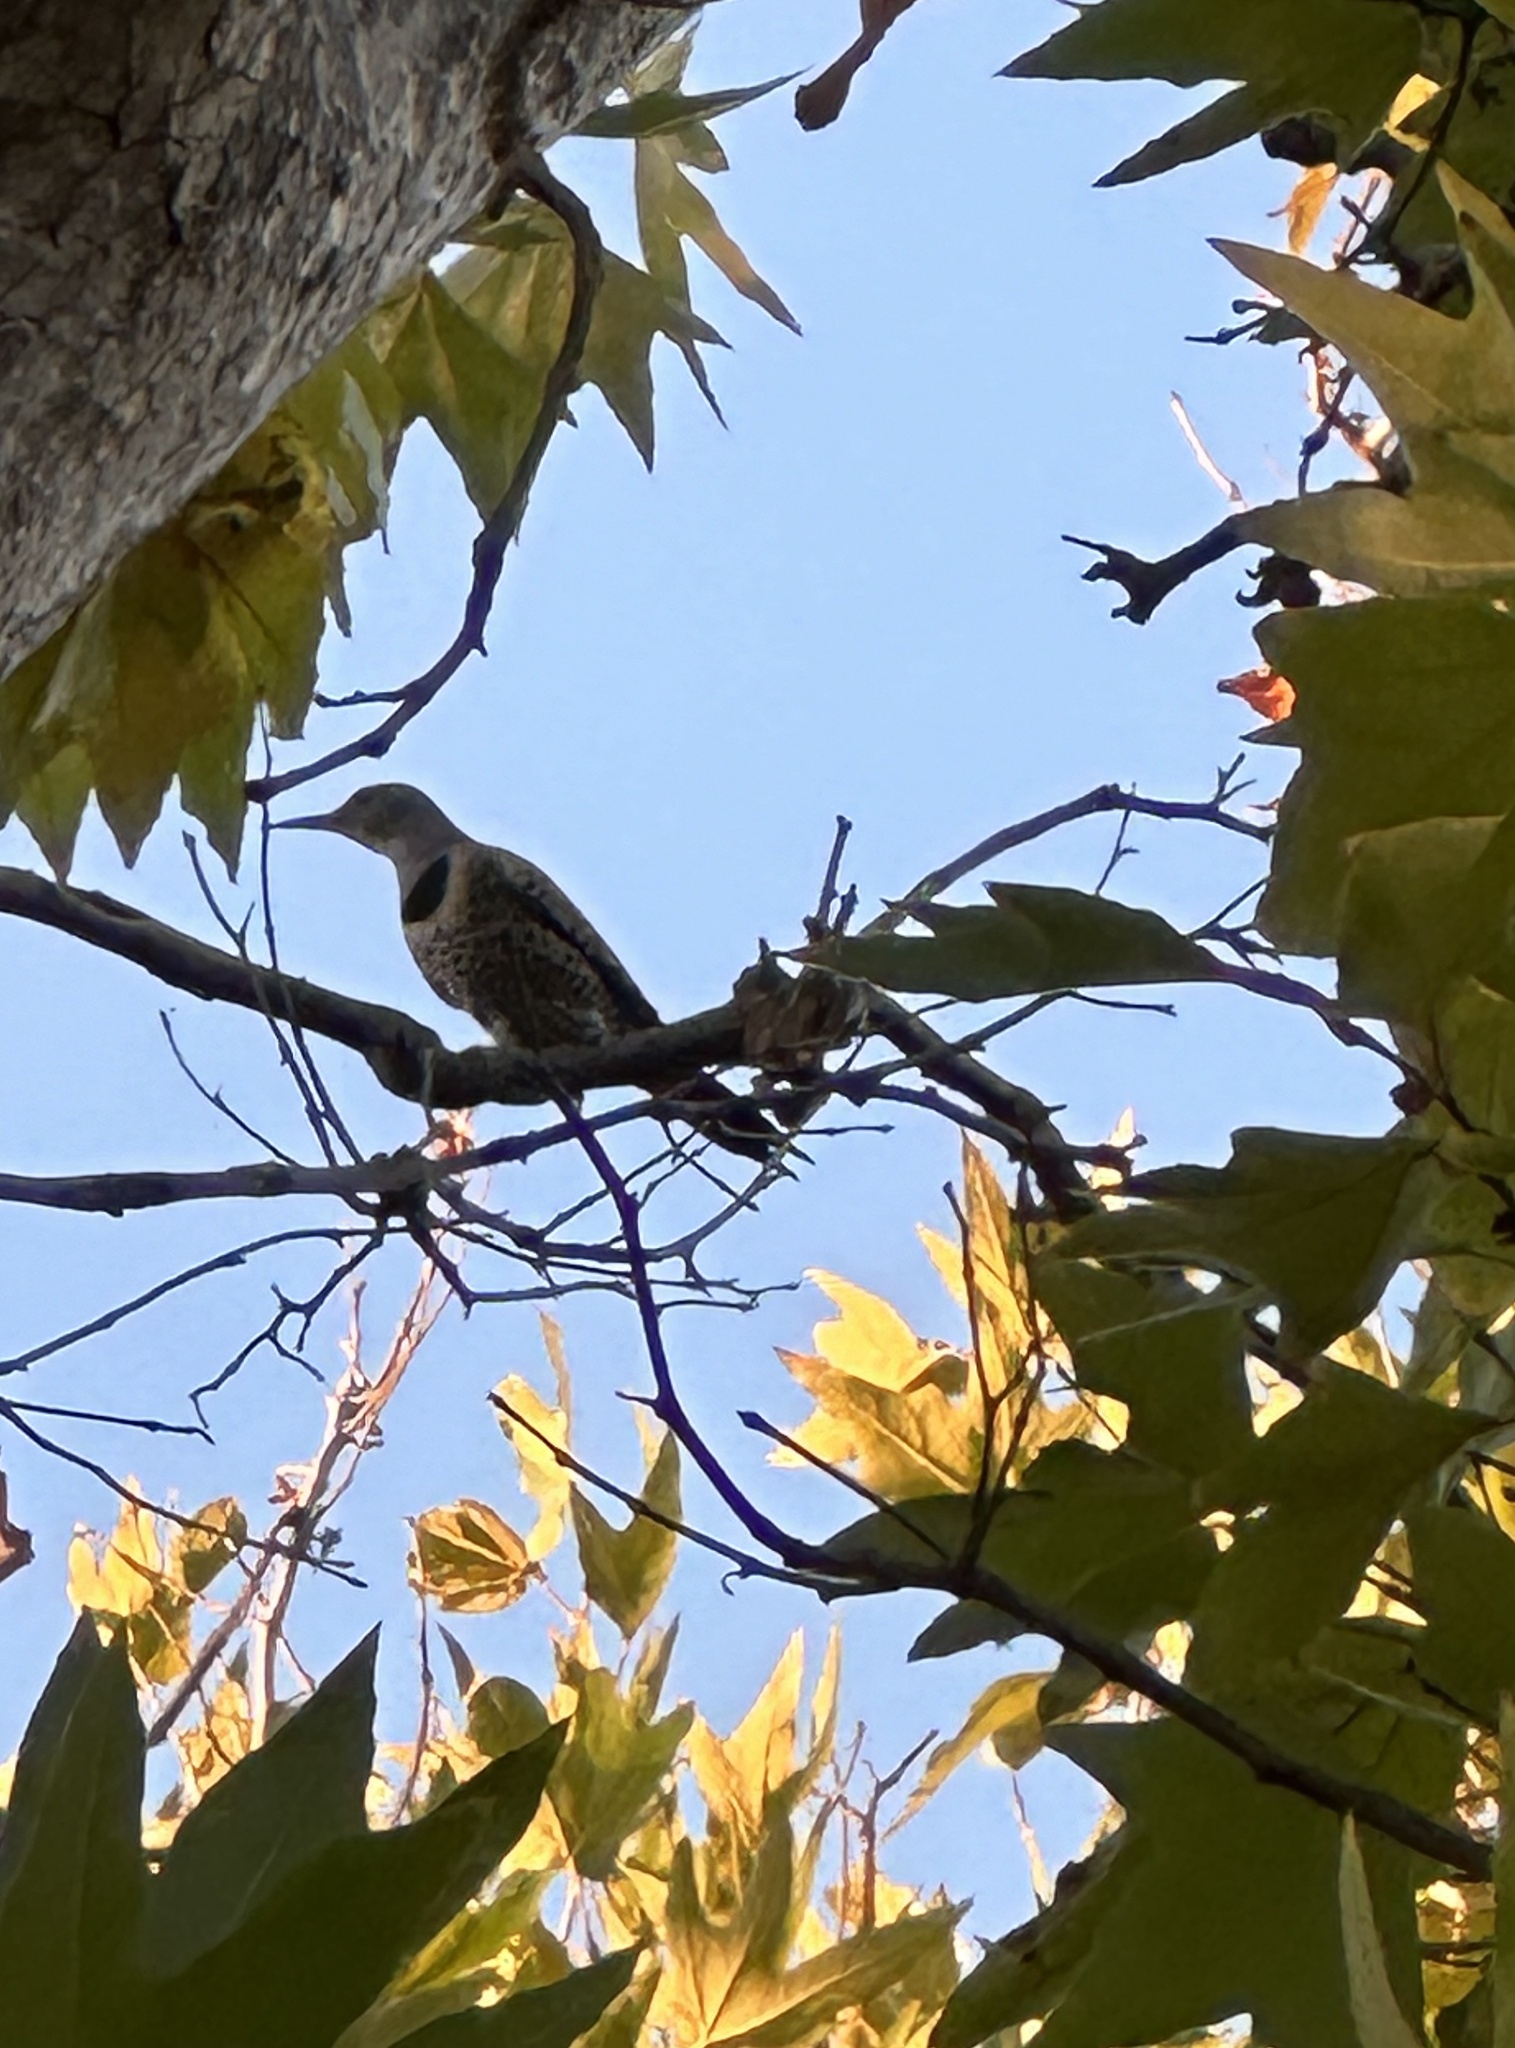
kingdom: Animalia
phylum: Chordata
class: Aves
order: Piciformes
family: Picidae
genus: Colaptes
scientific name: Colaptes auratus
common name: Northern flicker
